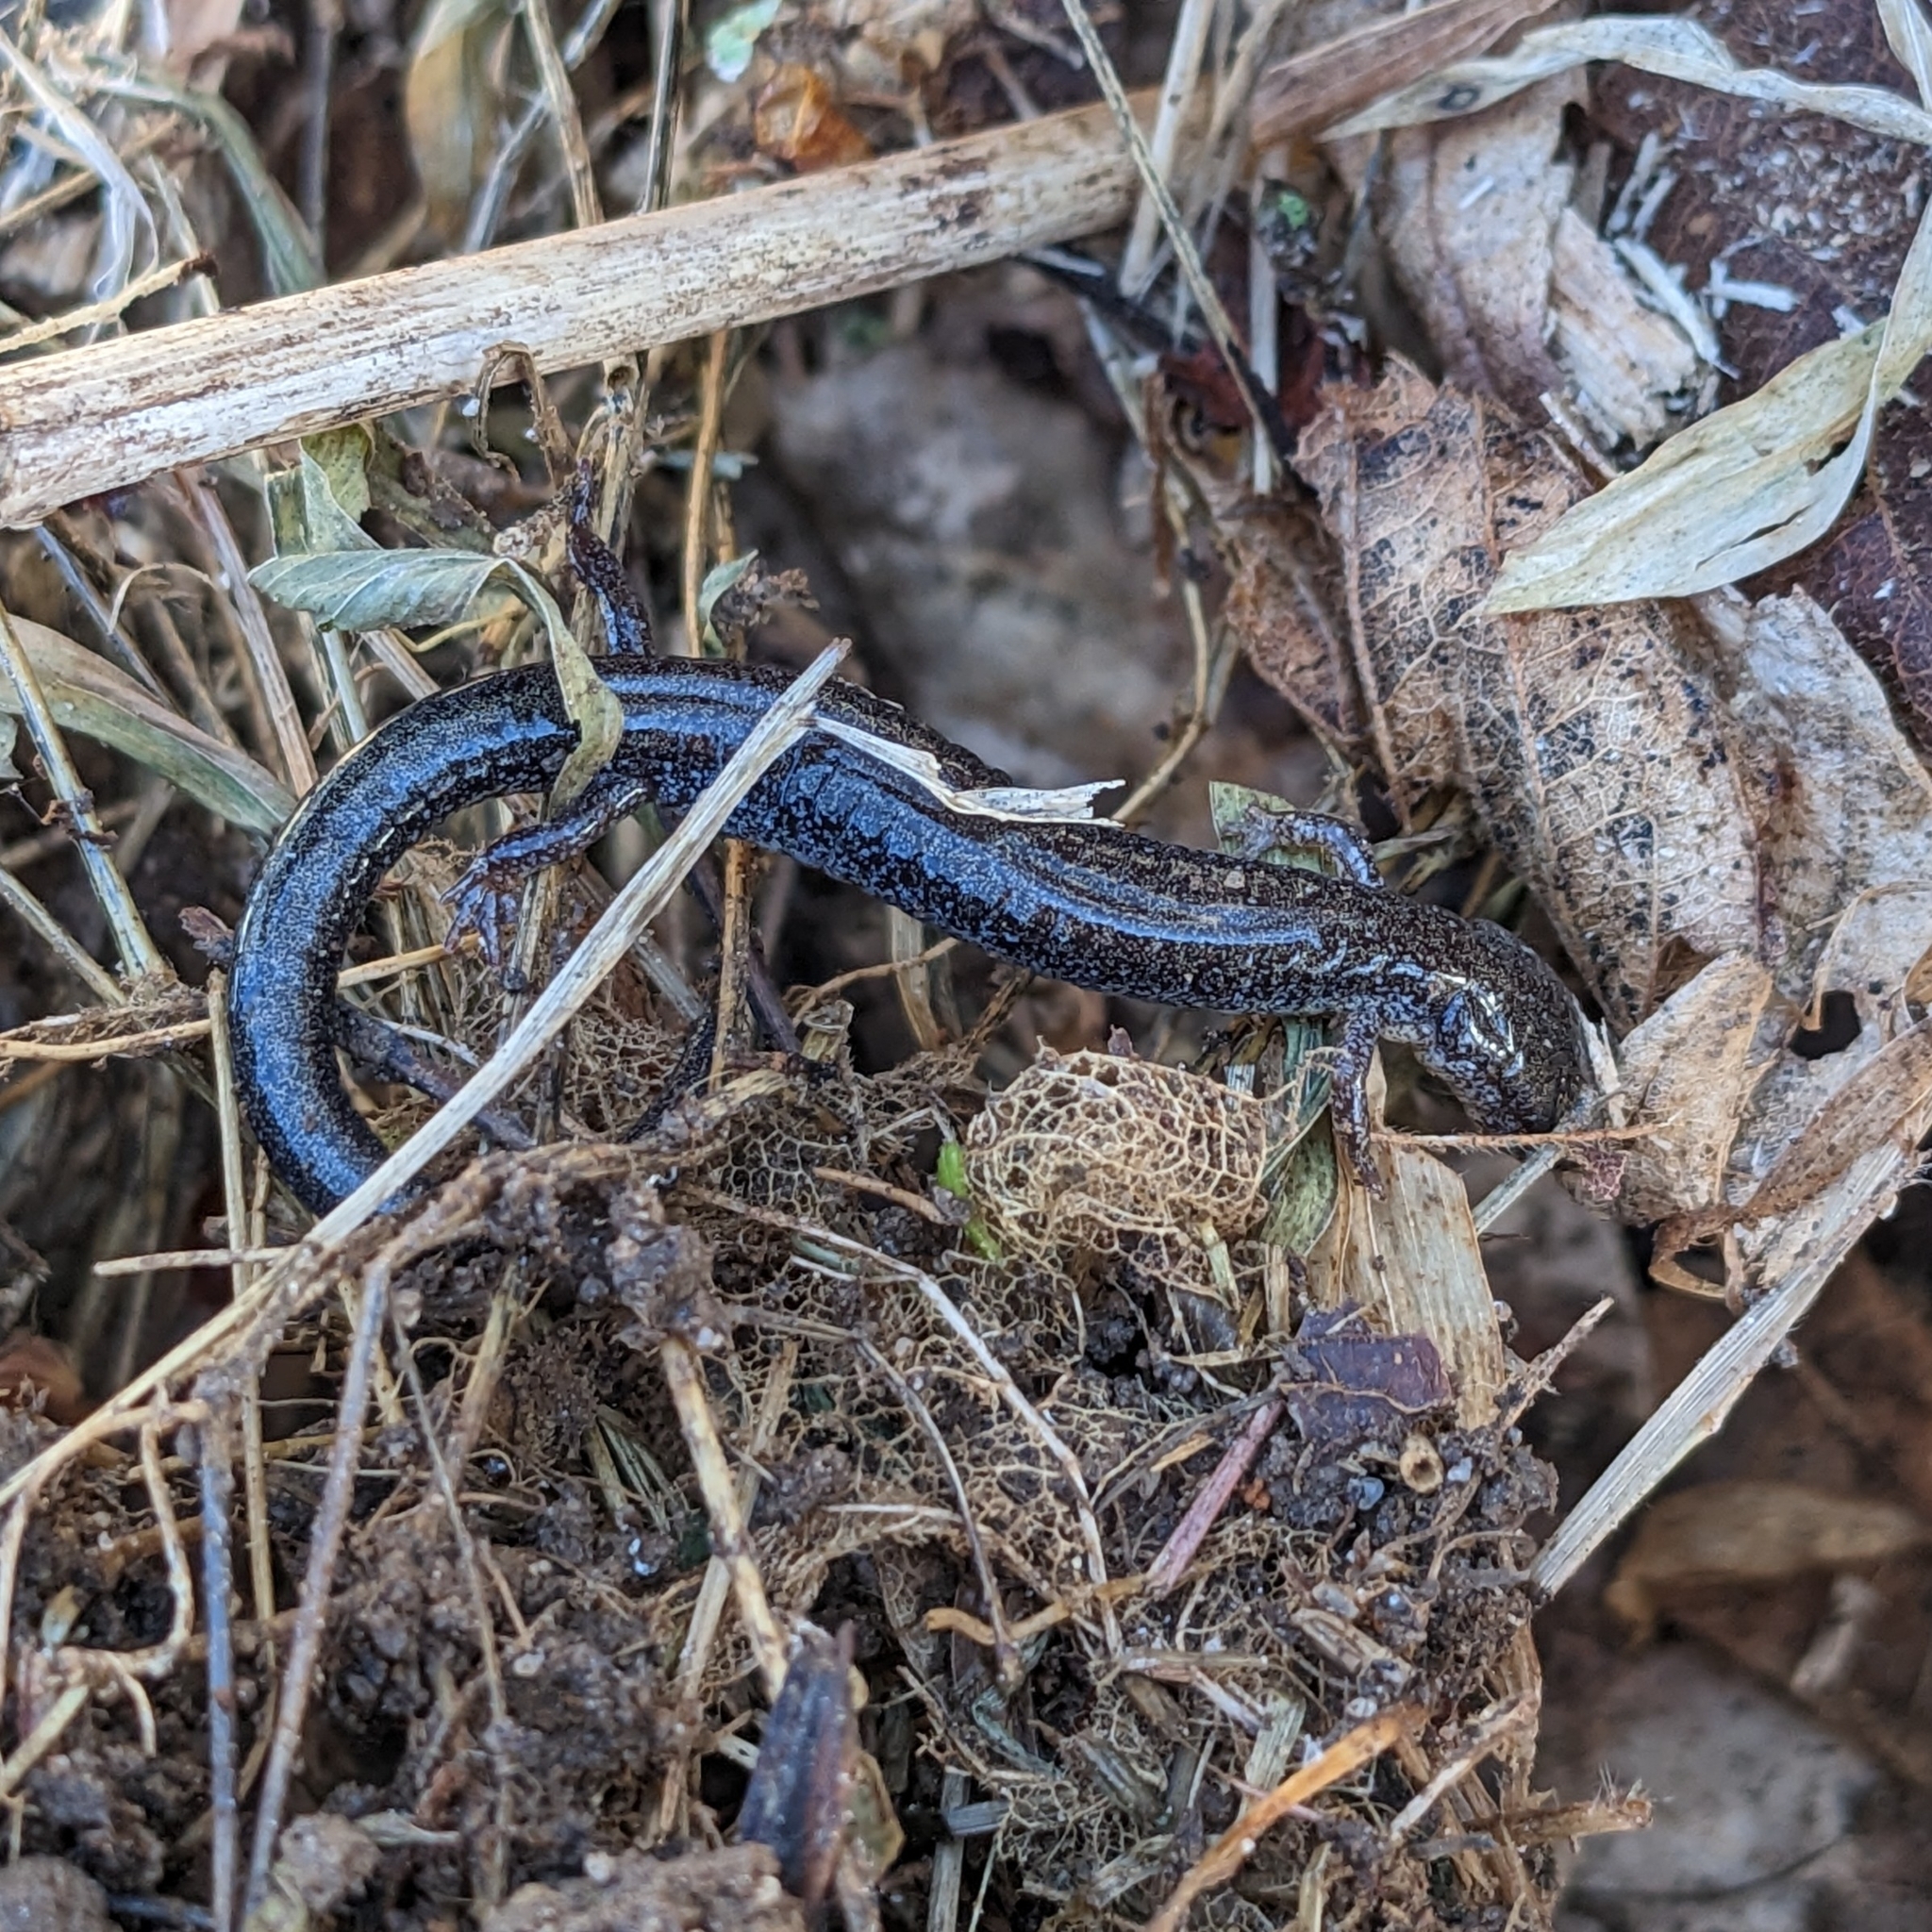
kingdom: Animalia
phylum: Chordata
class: Amphibia
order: Caudata
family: Plethodontidae
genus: Plethodon
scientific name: Plethodon cinereus
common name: Redback salamander
